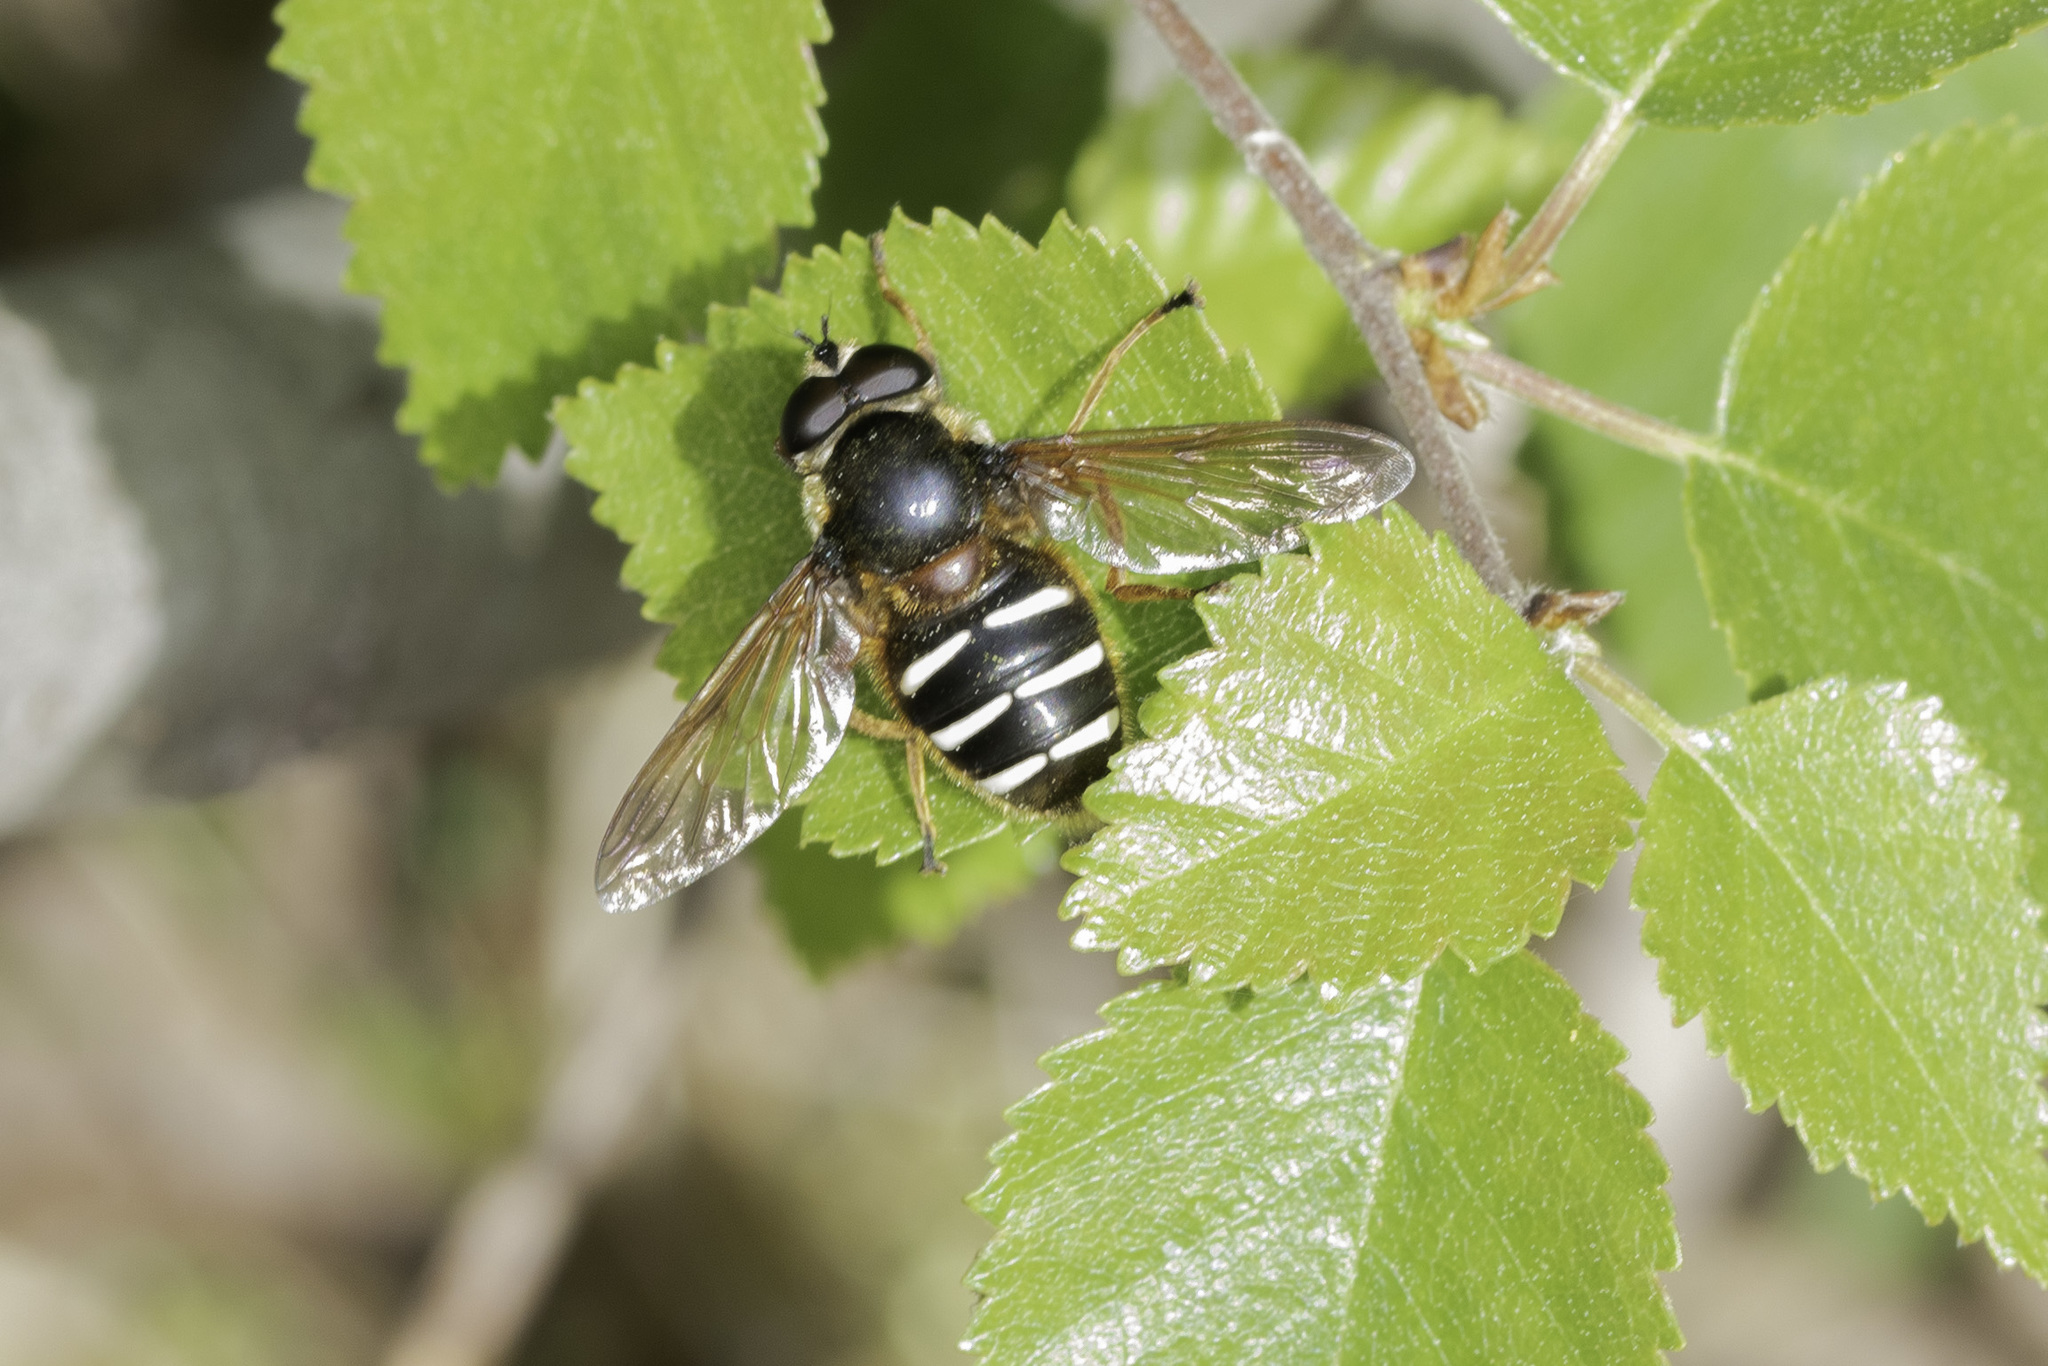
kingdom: Animalia
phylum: Arthropoda
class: Insecta
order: Diptera
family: Syrphidae
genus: Sericomyia
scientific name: Sericomyia lappona
